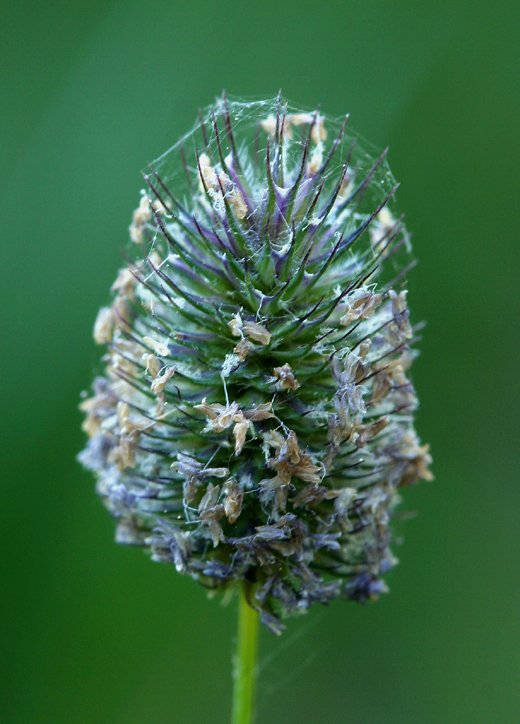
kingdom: Plantae
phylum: Tracheophyta
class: Liliopsida
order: Poales
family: Poaceae
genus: Phleum
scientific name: Phleum alpinum
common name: Alpine cat's-tail
